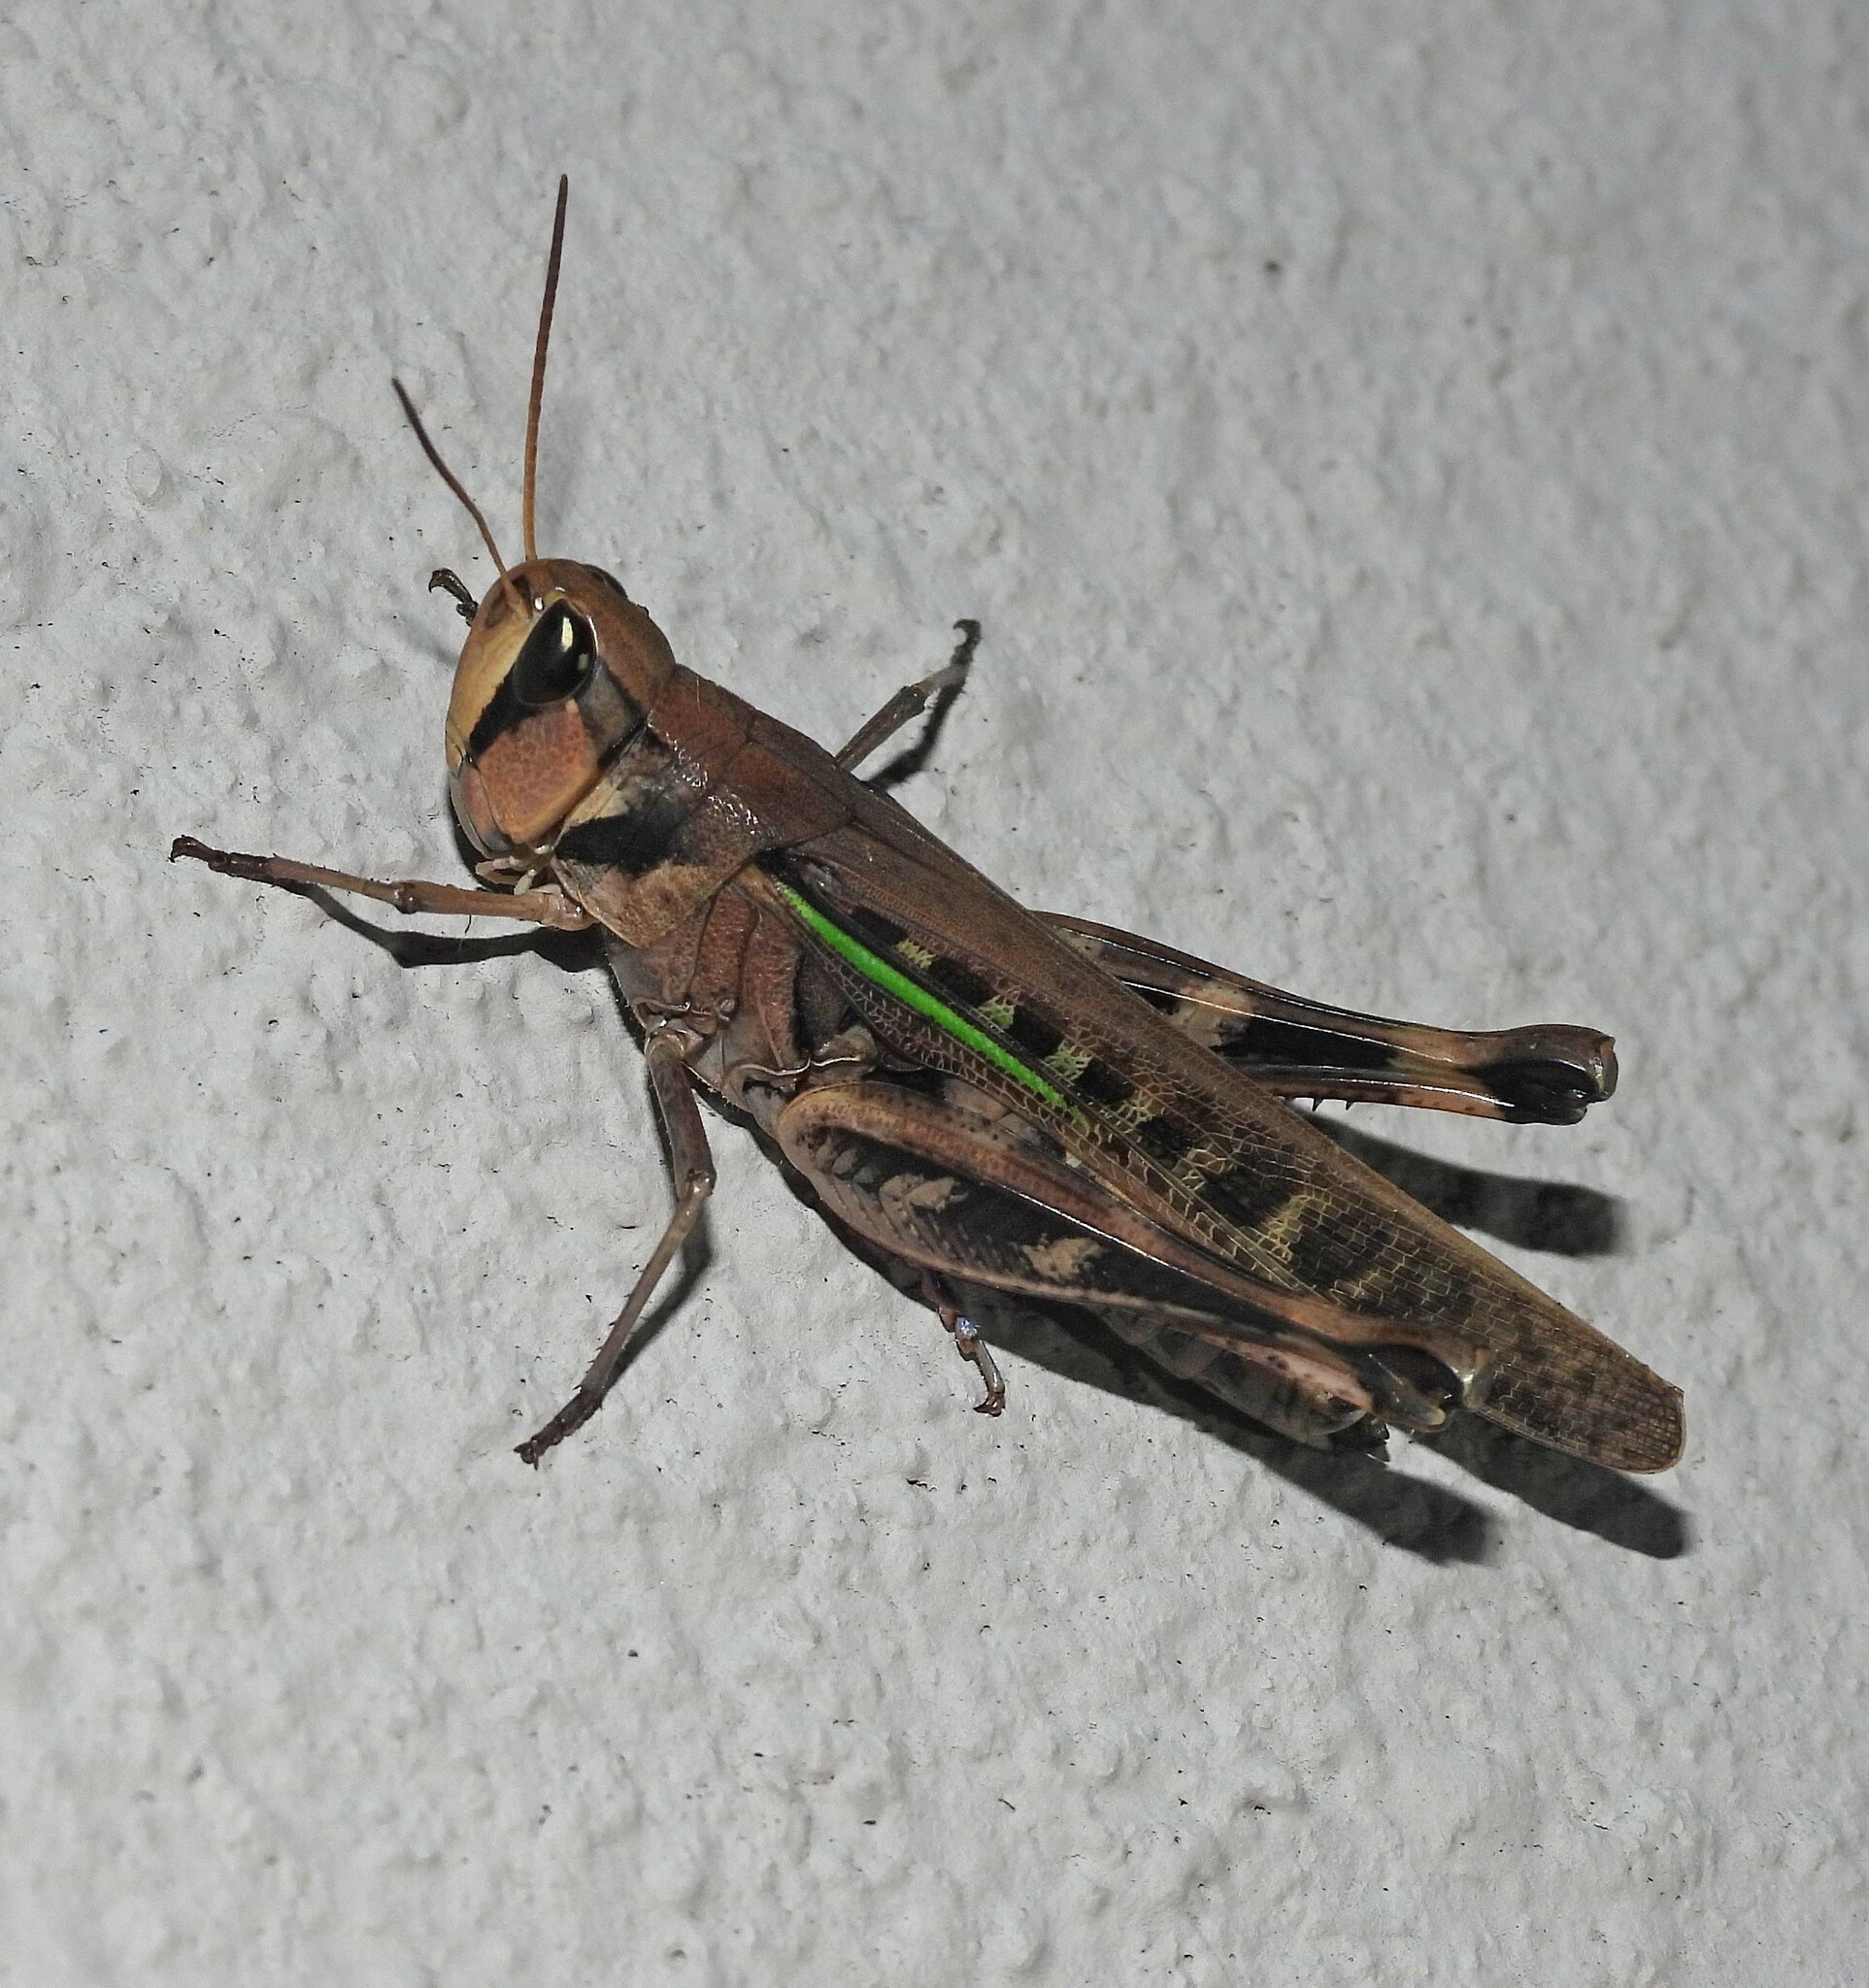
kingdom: Animalia
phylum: Arthropoda
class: Insecta
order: Orthoptera
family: Acrididae
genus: Rhammatocerus
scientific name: Rhammatocerus pictus
